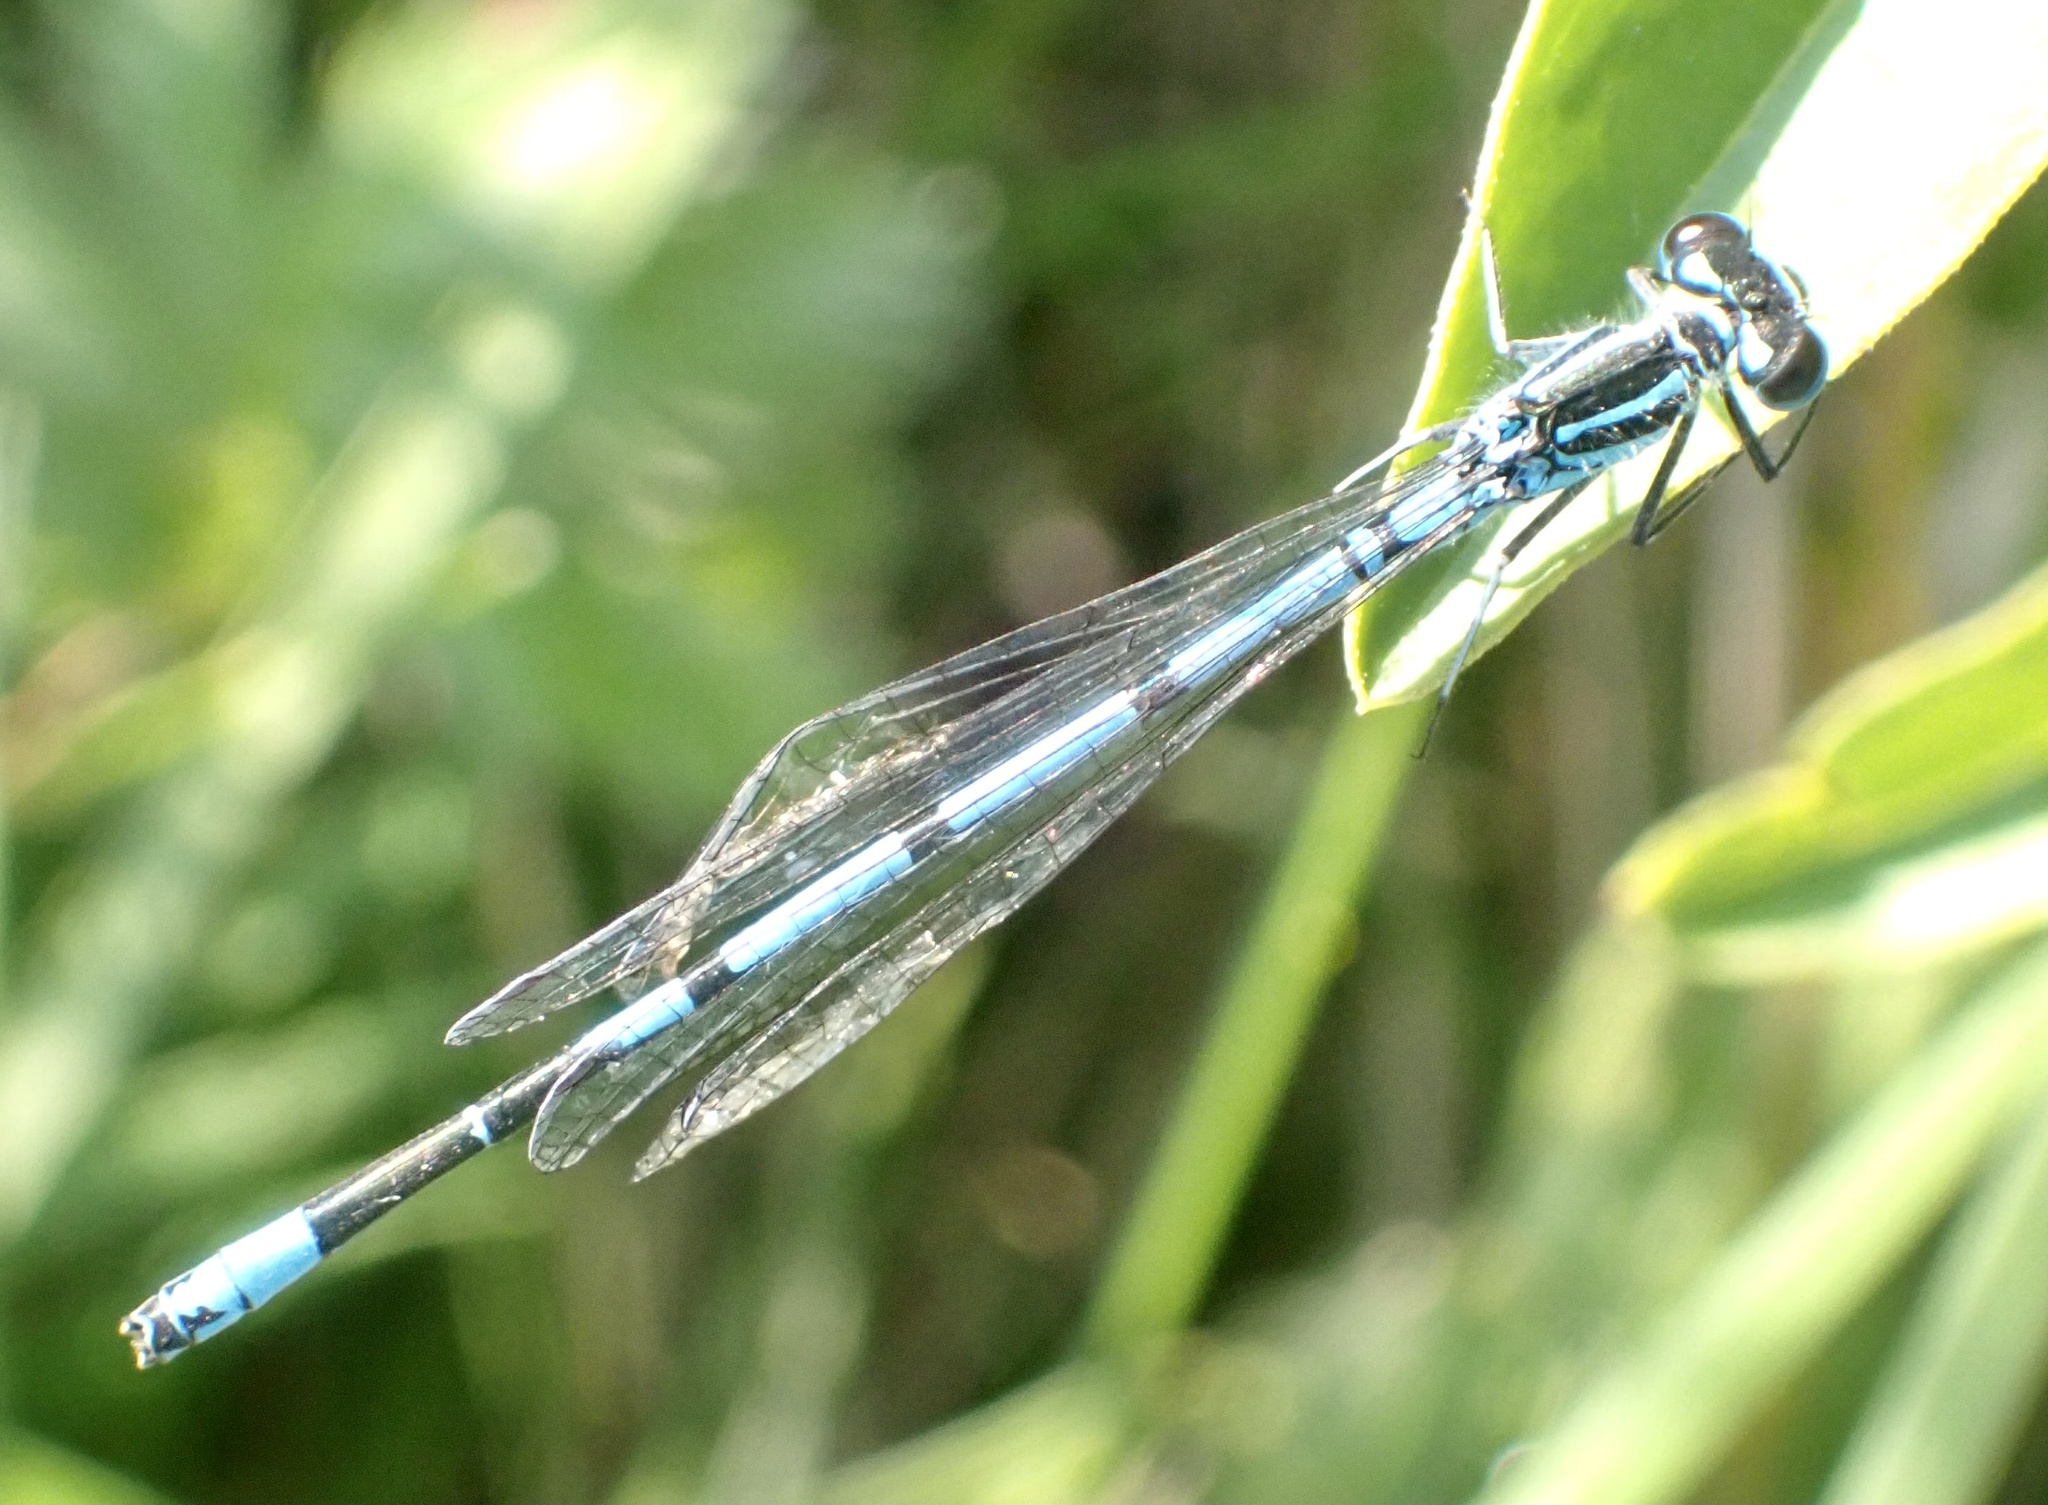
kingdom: Animalia
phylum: Arthropoda
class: Insecta
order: Odonata
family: Coenagrionidae
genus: Coenagrion
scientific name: Coenagrion puella
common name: Azure damselfly
